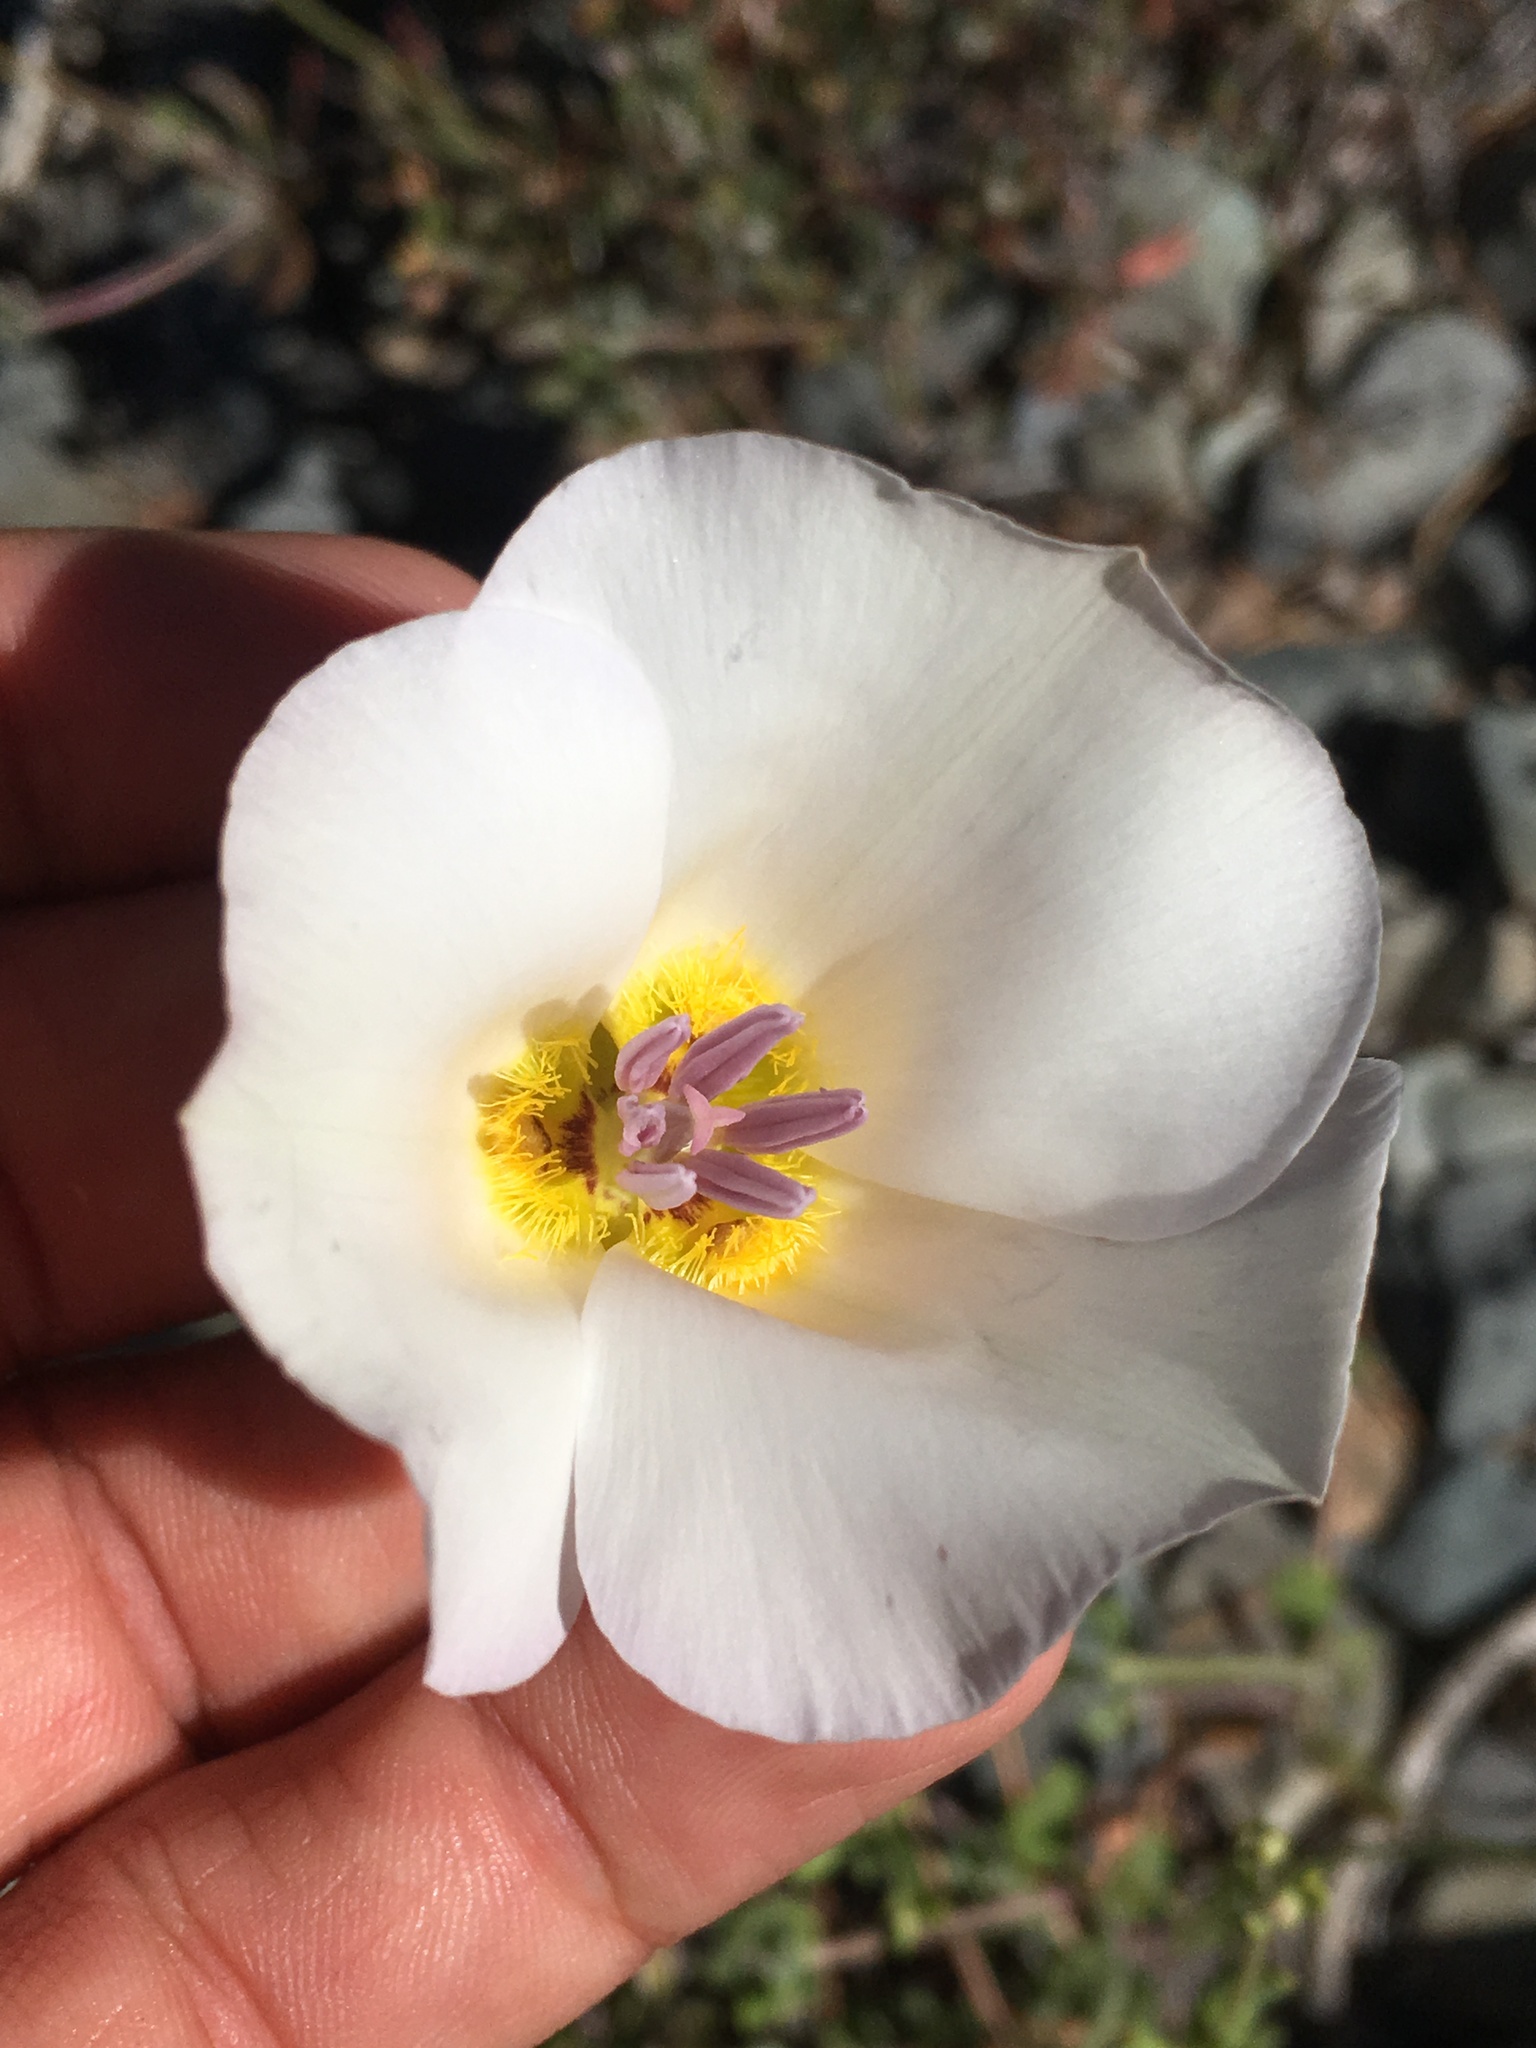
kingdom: Plantae
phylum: Tracheophyta
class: Liliopsida
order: Liliales
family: Liliaceae
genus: Calochortus
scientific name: Calochortus panamintensis
